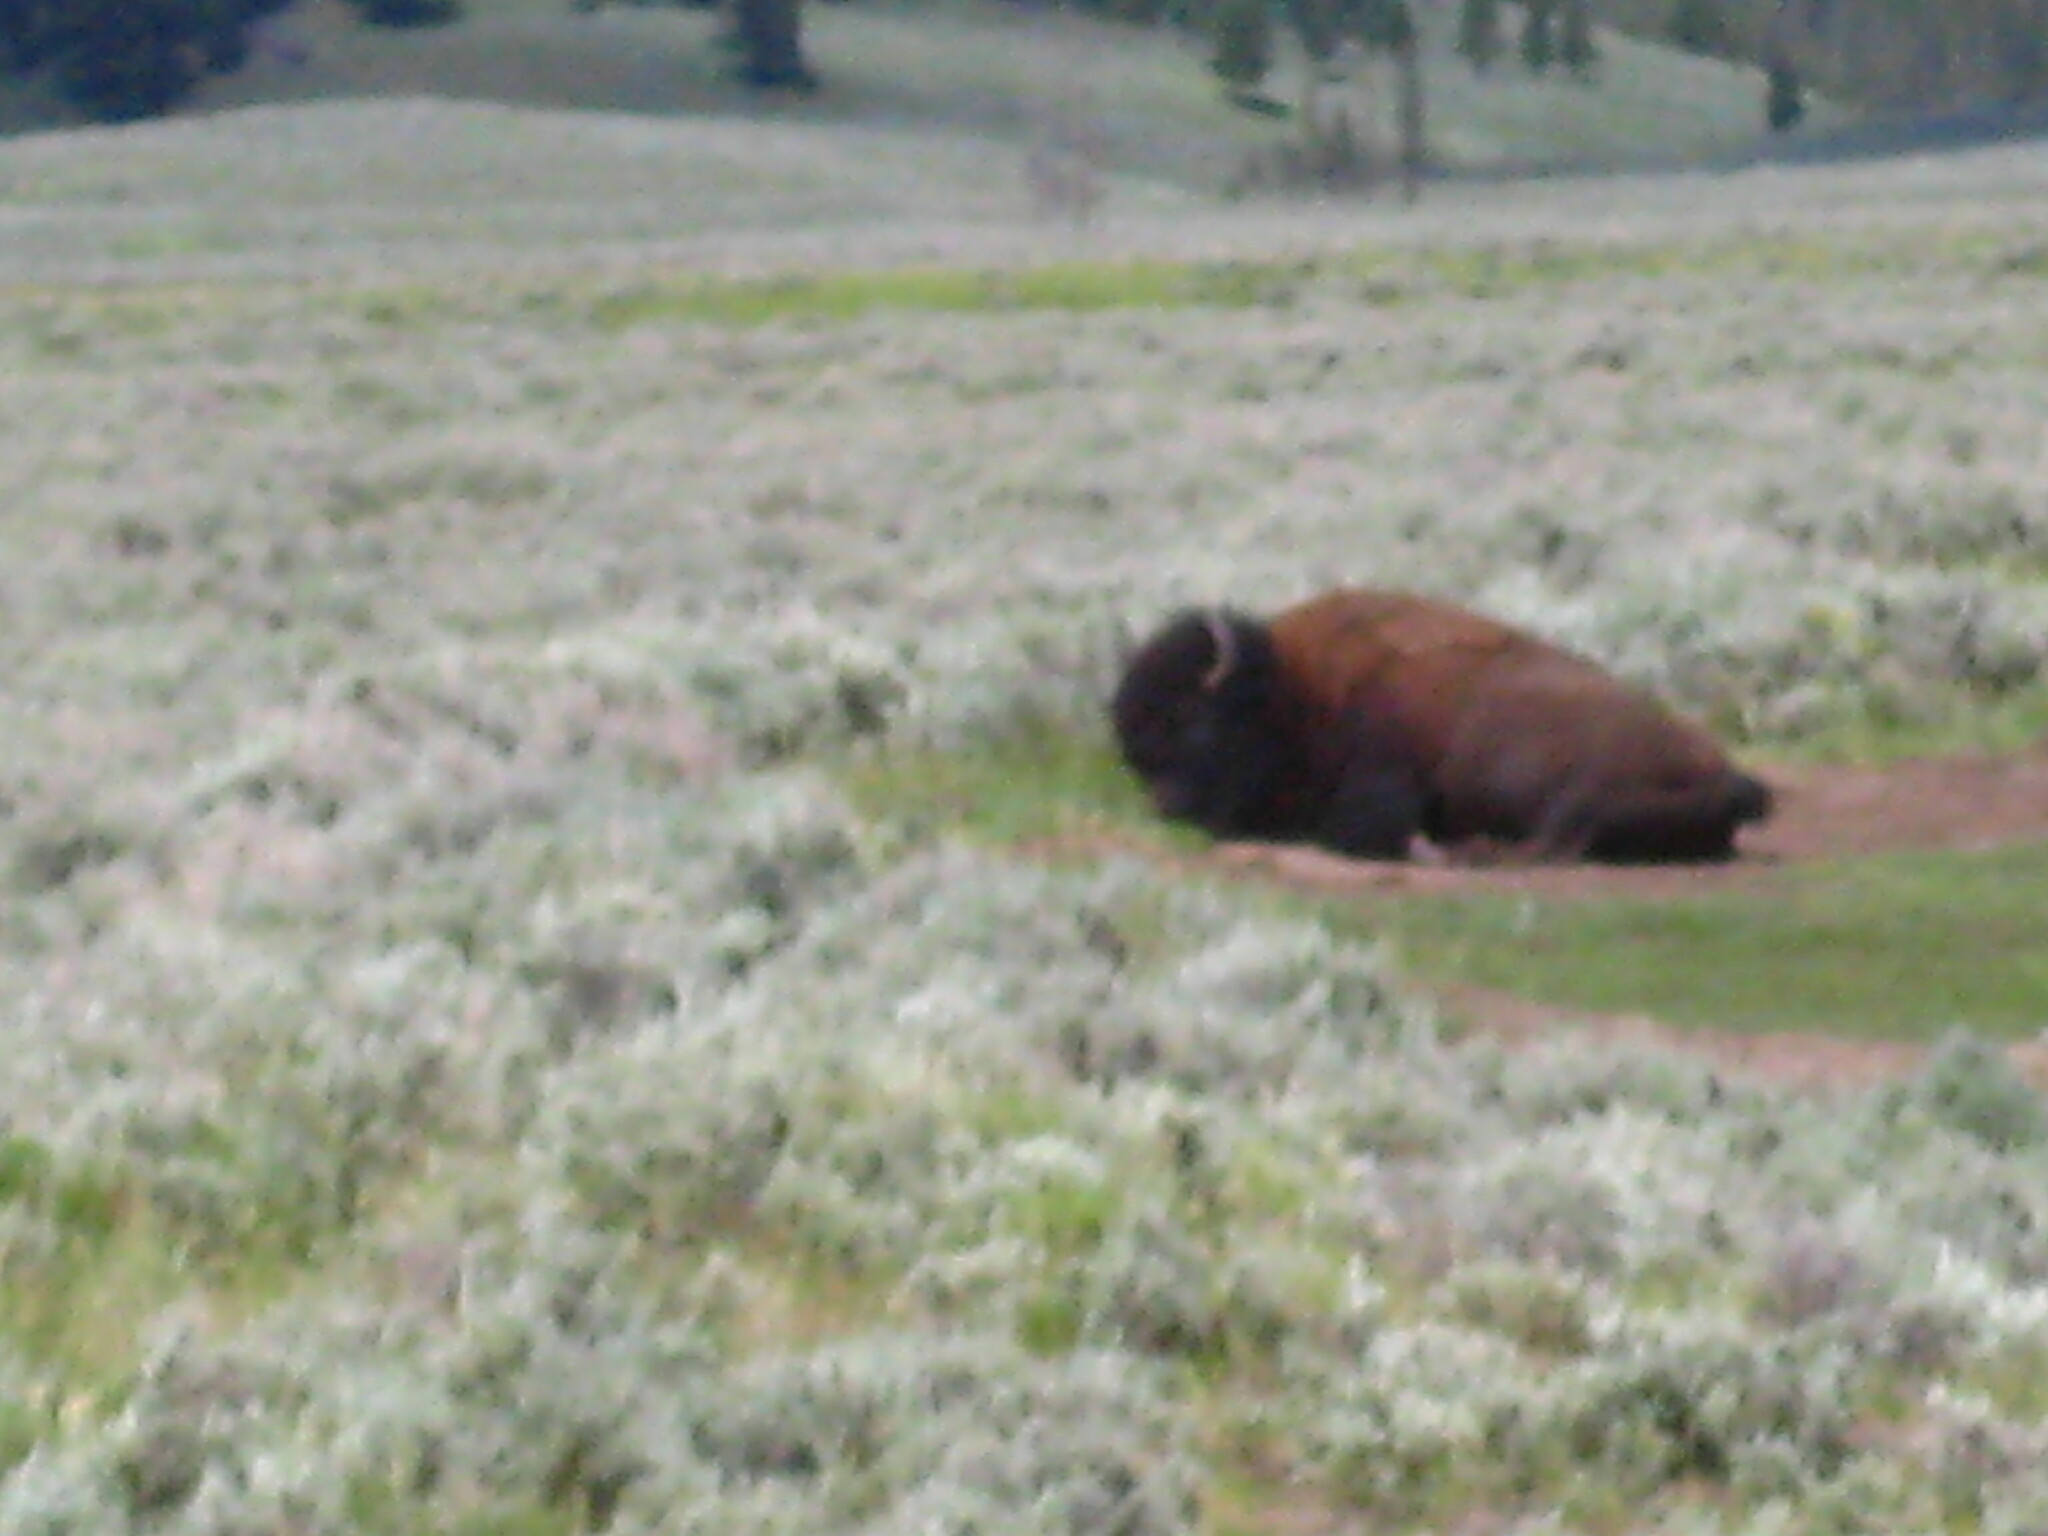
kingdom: Animalia
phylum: Chordata
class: Mammalia
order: Artiodactyla
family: Bovidae
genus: Bison
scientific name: Bison bison
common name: American bison
